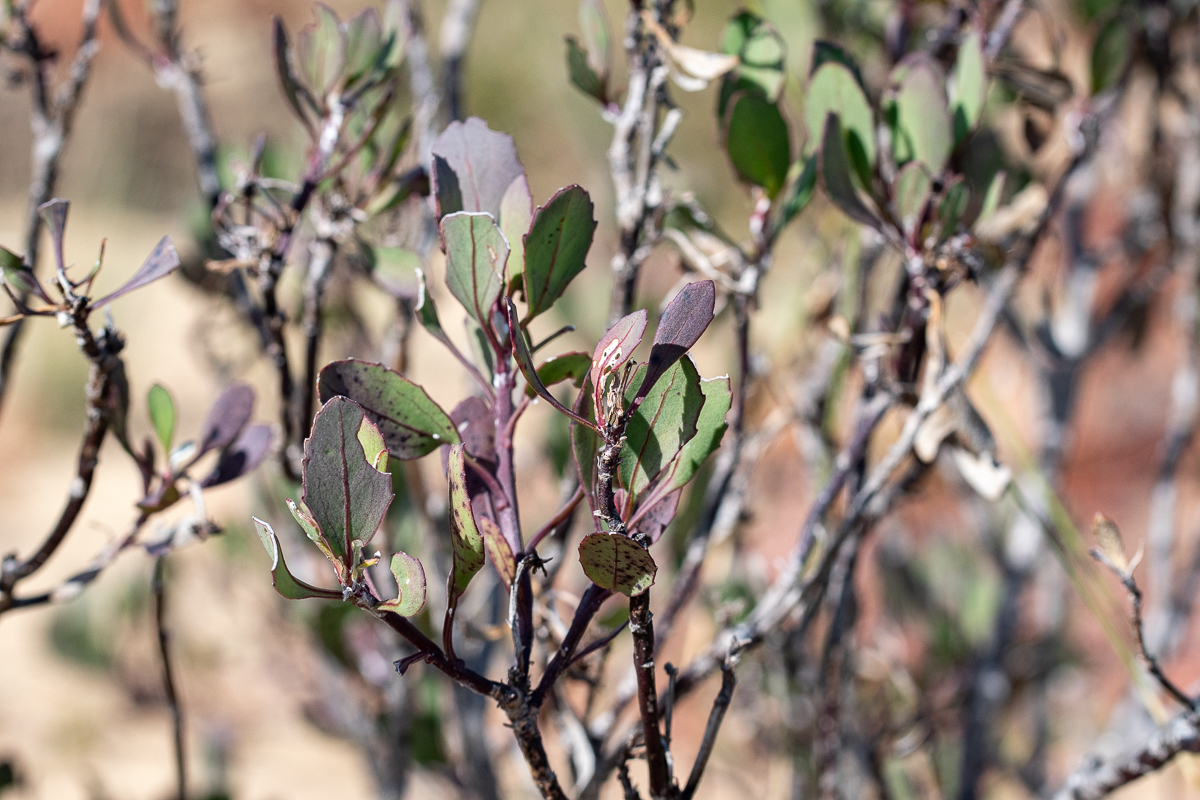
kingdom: Plantae
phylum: Tracheophyta
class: Magnoliopsida
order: Asterales
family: Asteraceae
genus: Osteospermum
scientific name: Osteospermum moniliferum
